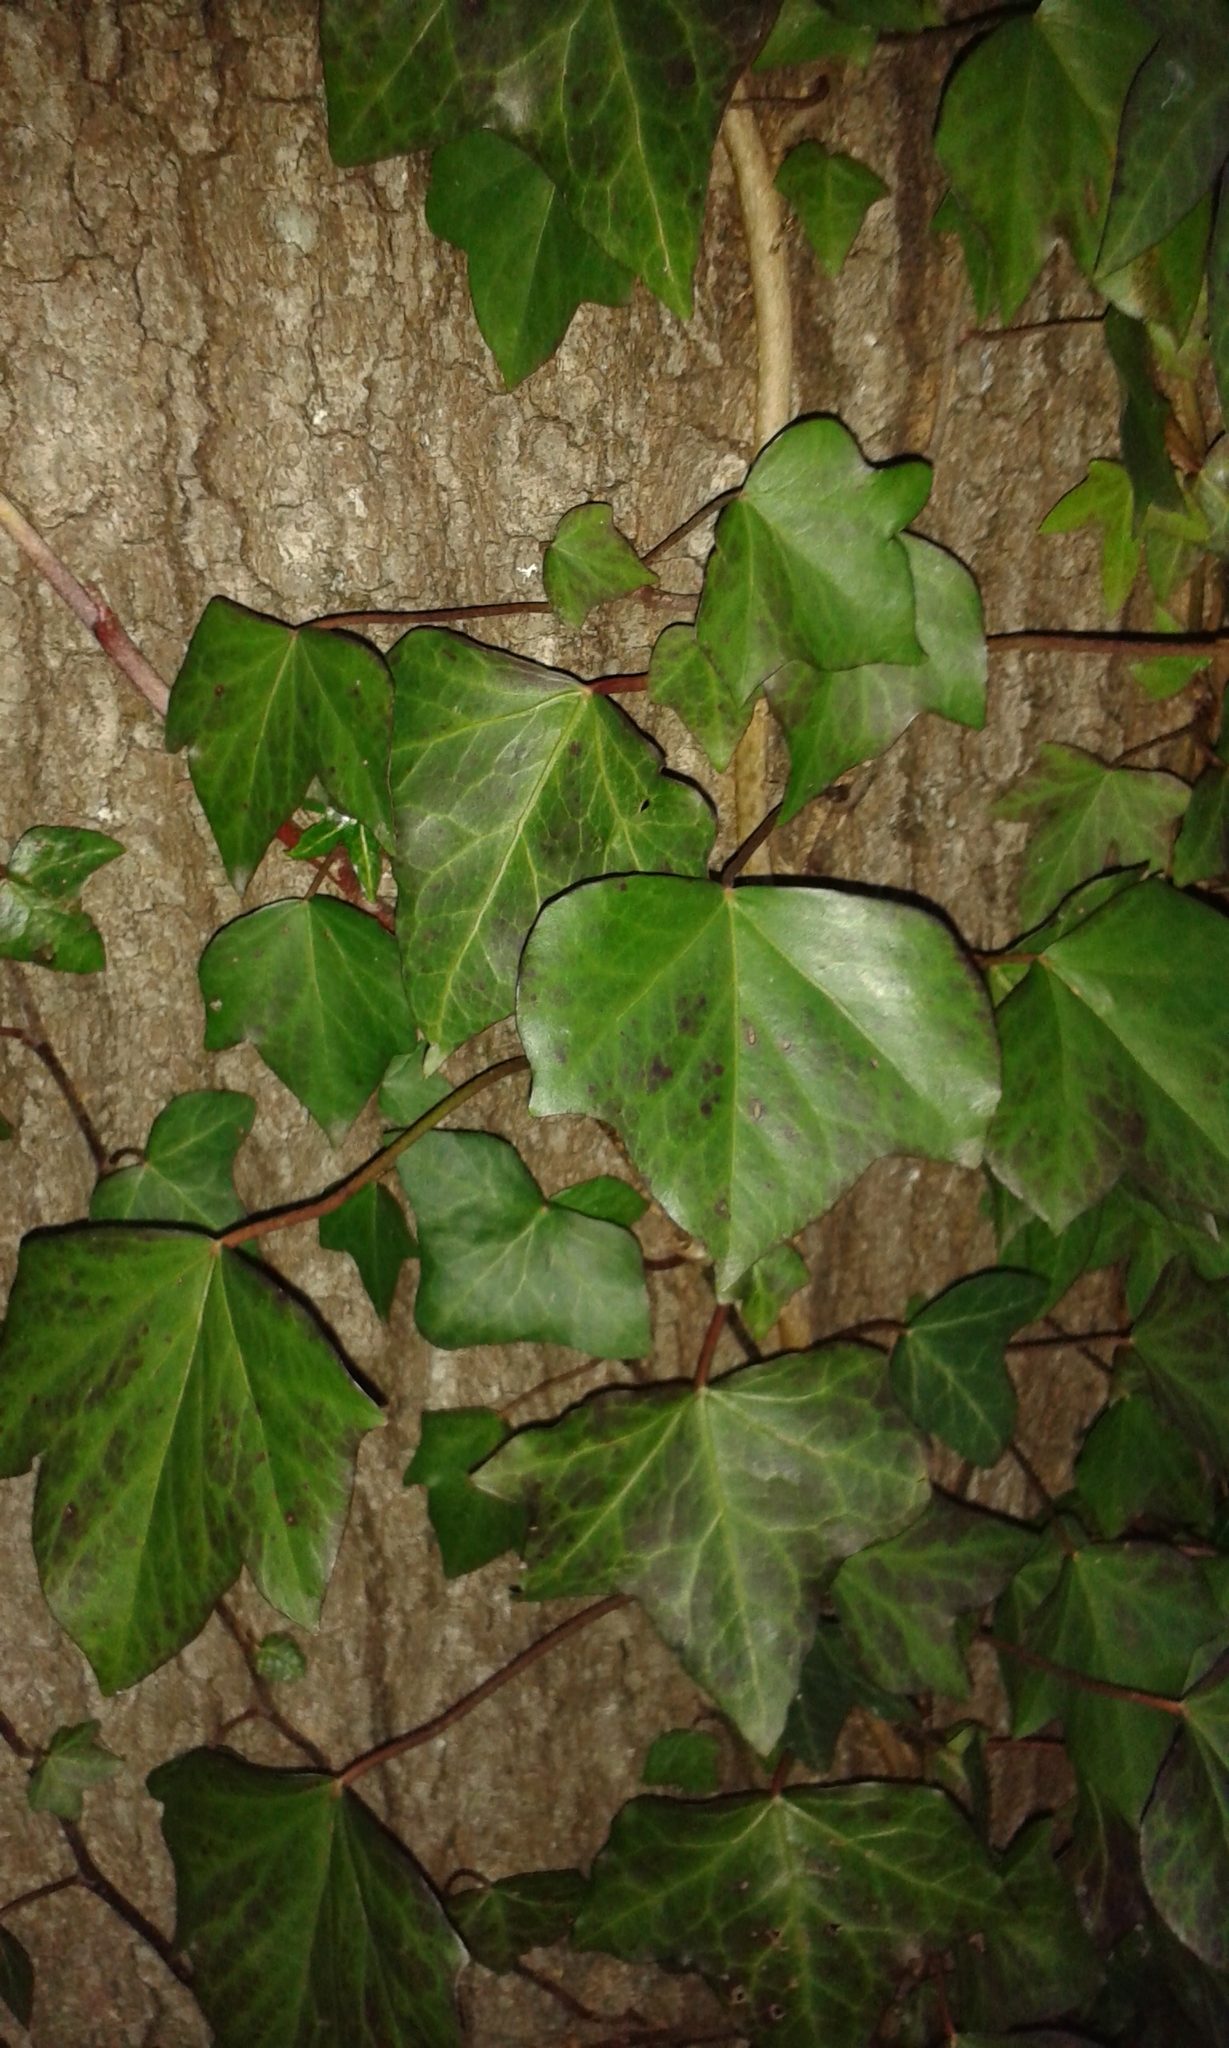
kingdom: Plantae
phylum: Tracheophyta
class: Magnoliopsida
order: Apiales
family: Araliaceae
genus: Hedera
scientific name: Hedera helix
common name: Ivy
